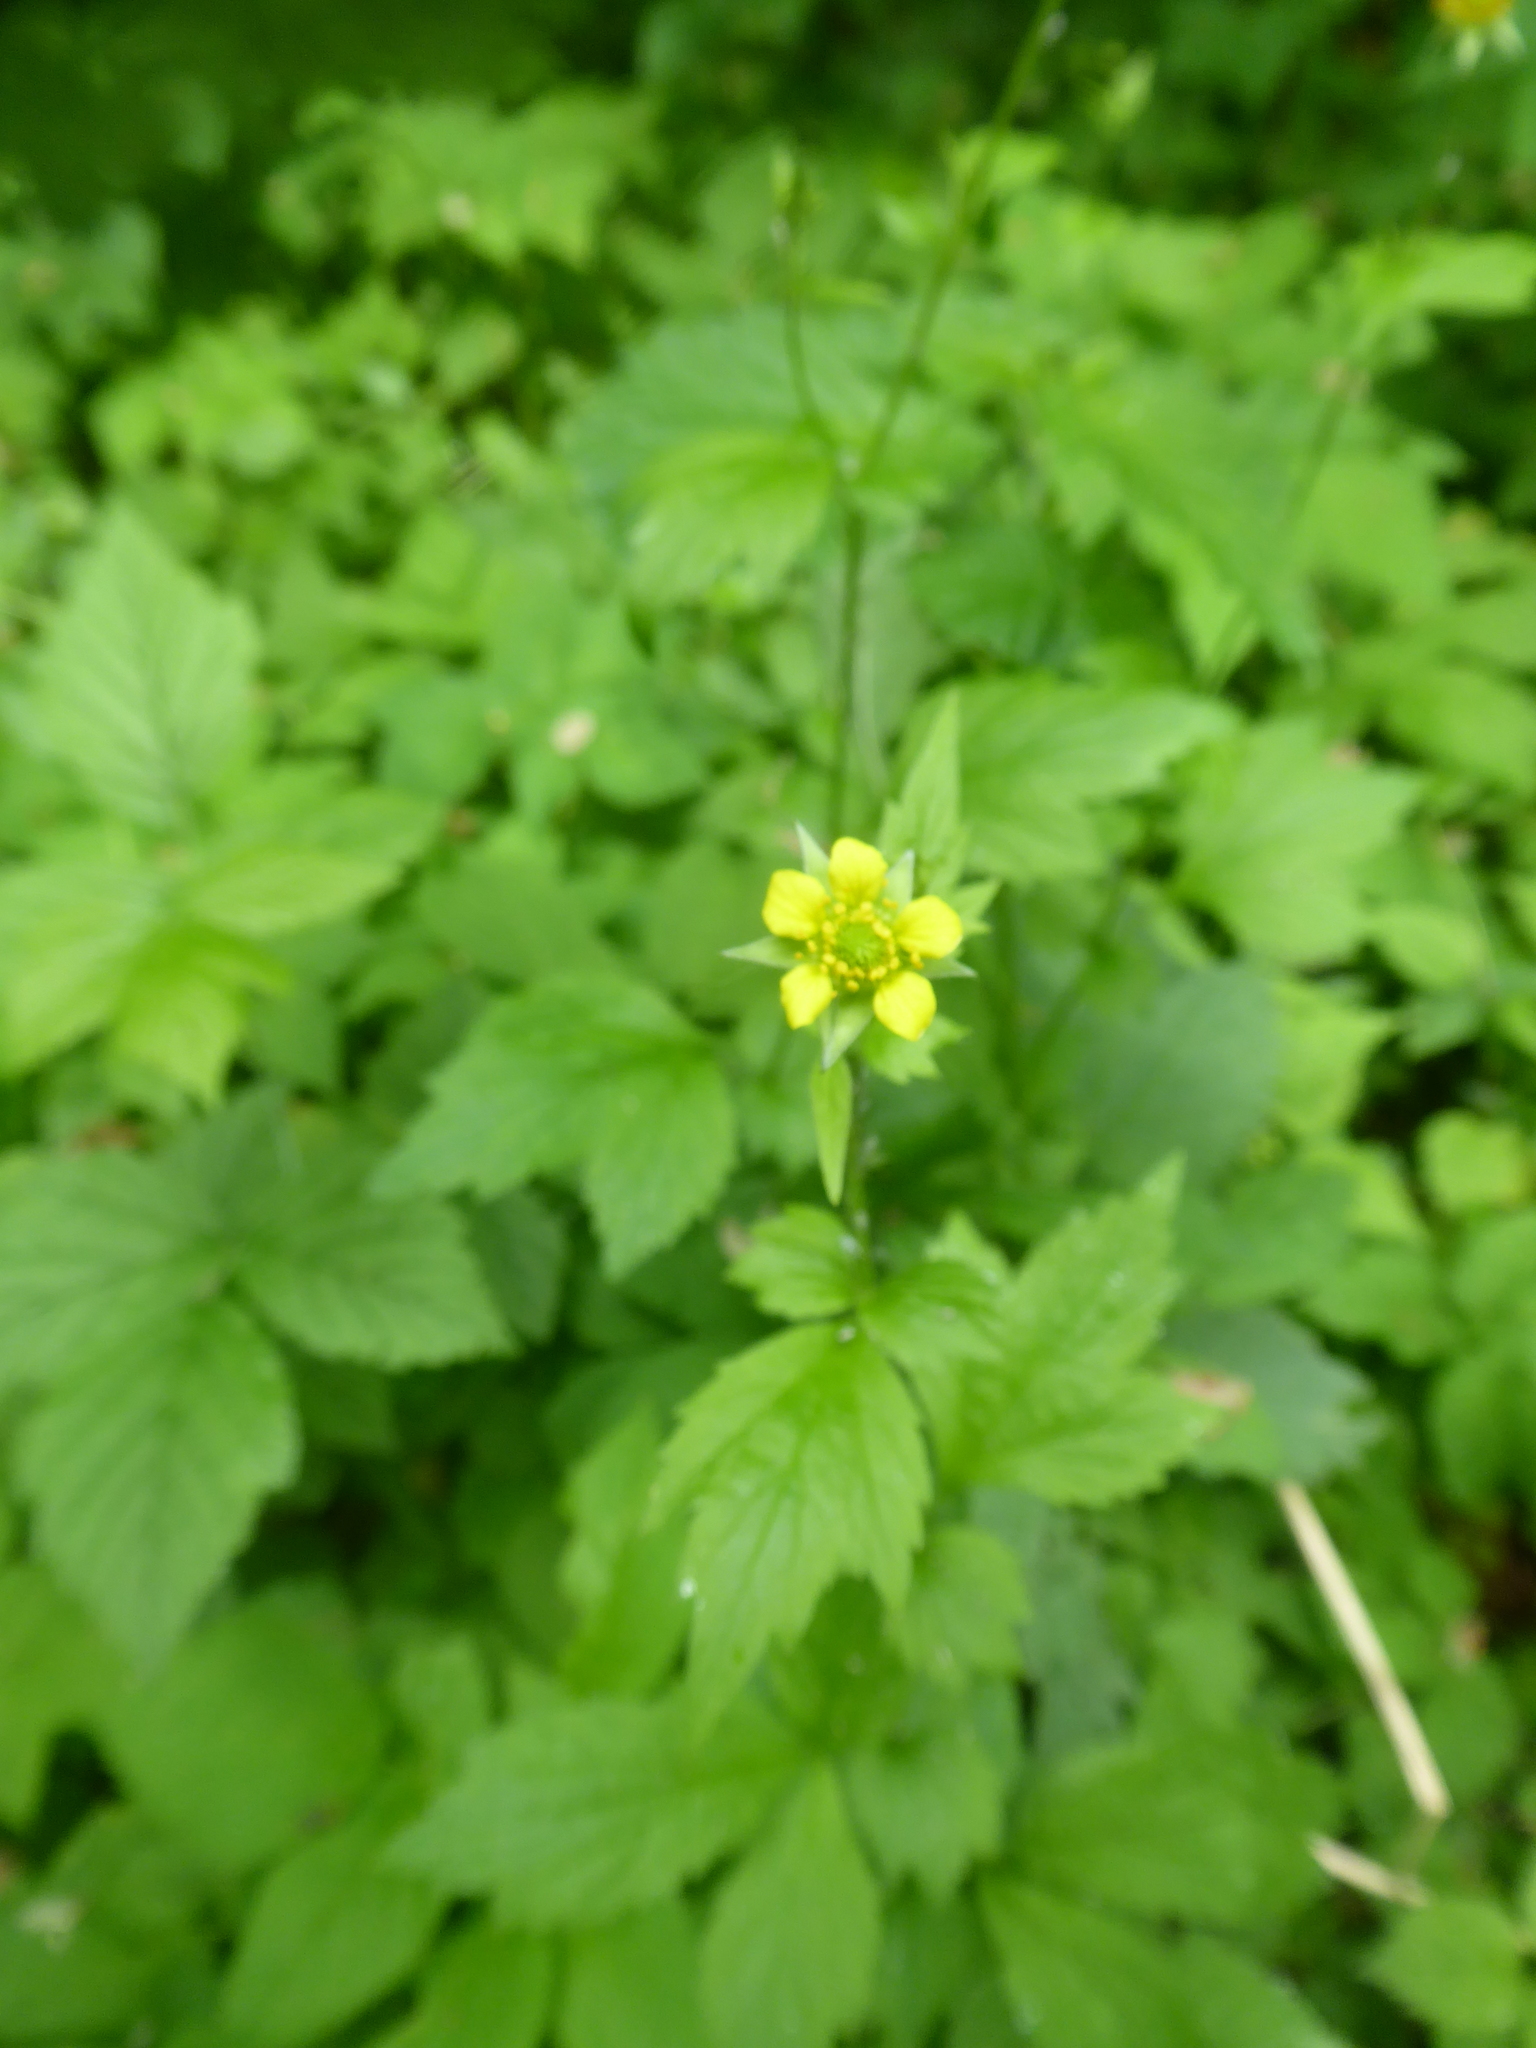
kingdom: Plantae
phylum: Tracheophyta
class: Magnoliopsida
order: Rosales
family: Rosaceae
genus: Geum
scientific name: Geum urbanum
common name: Wood avens
